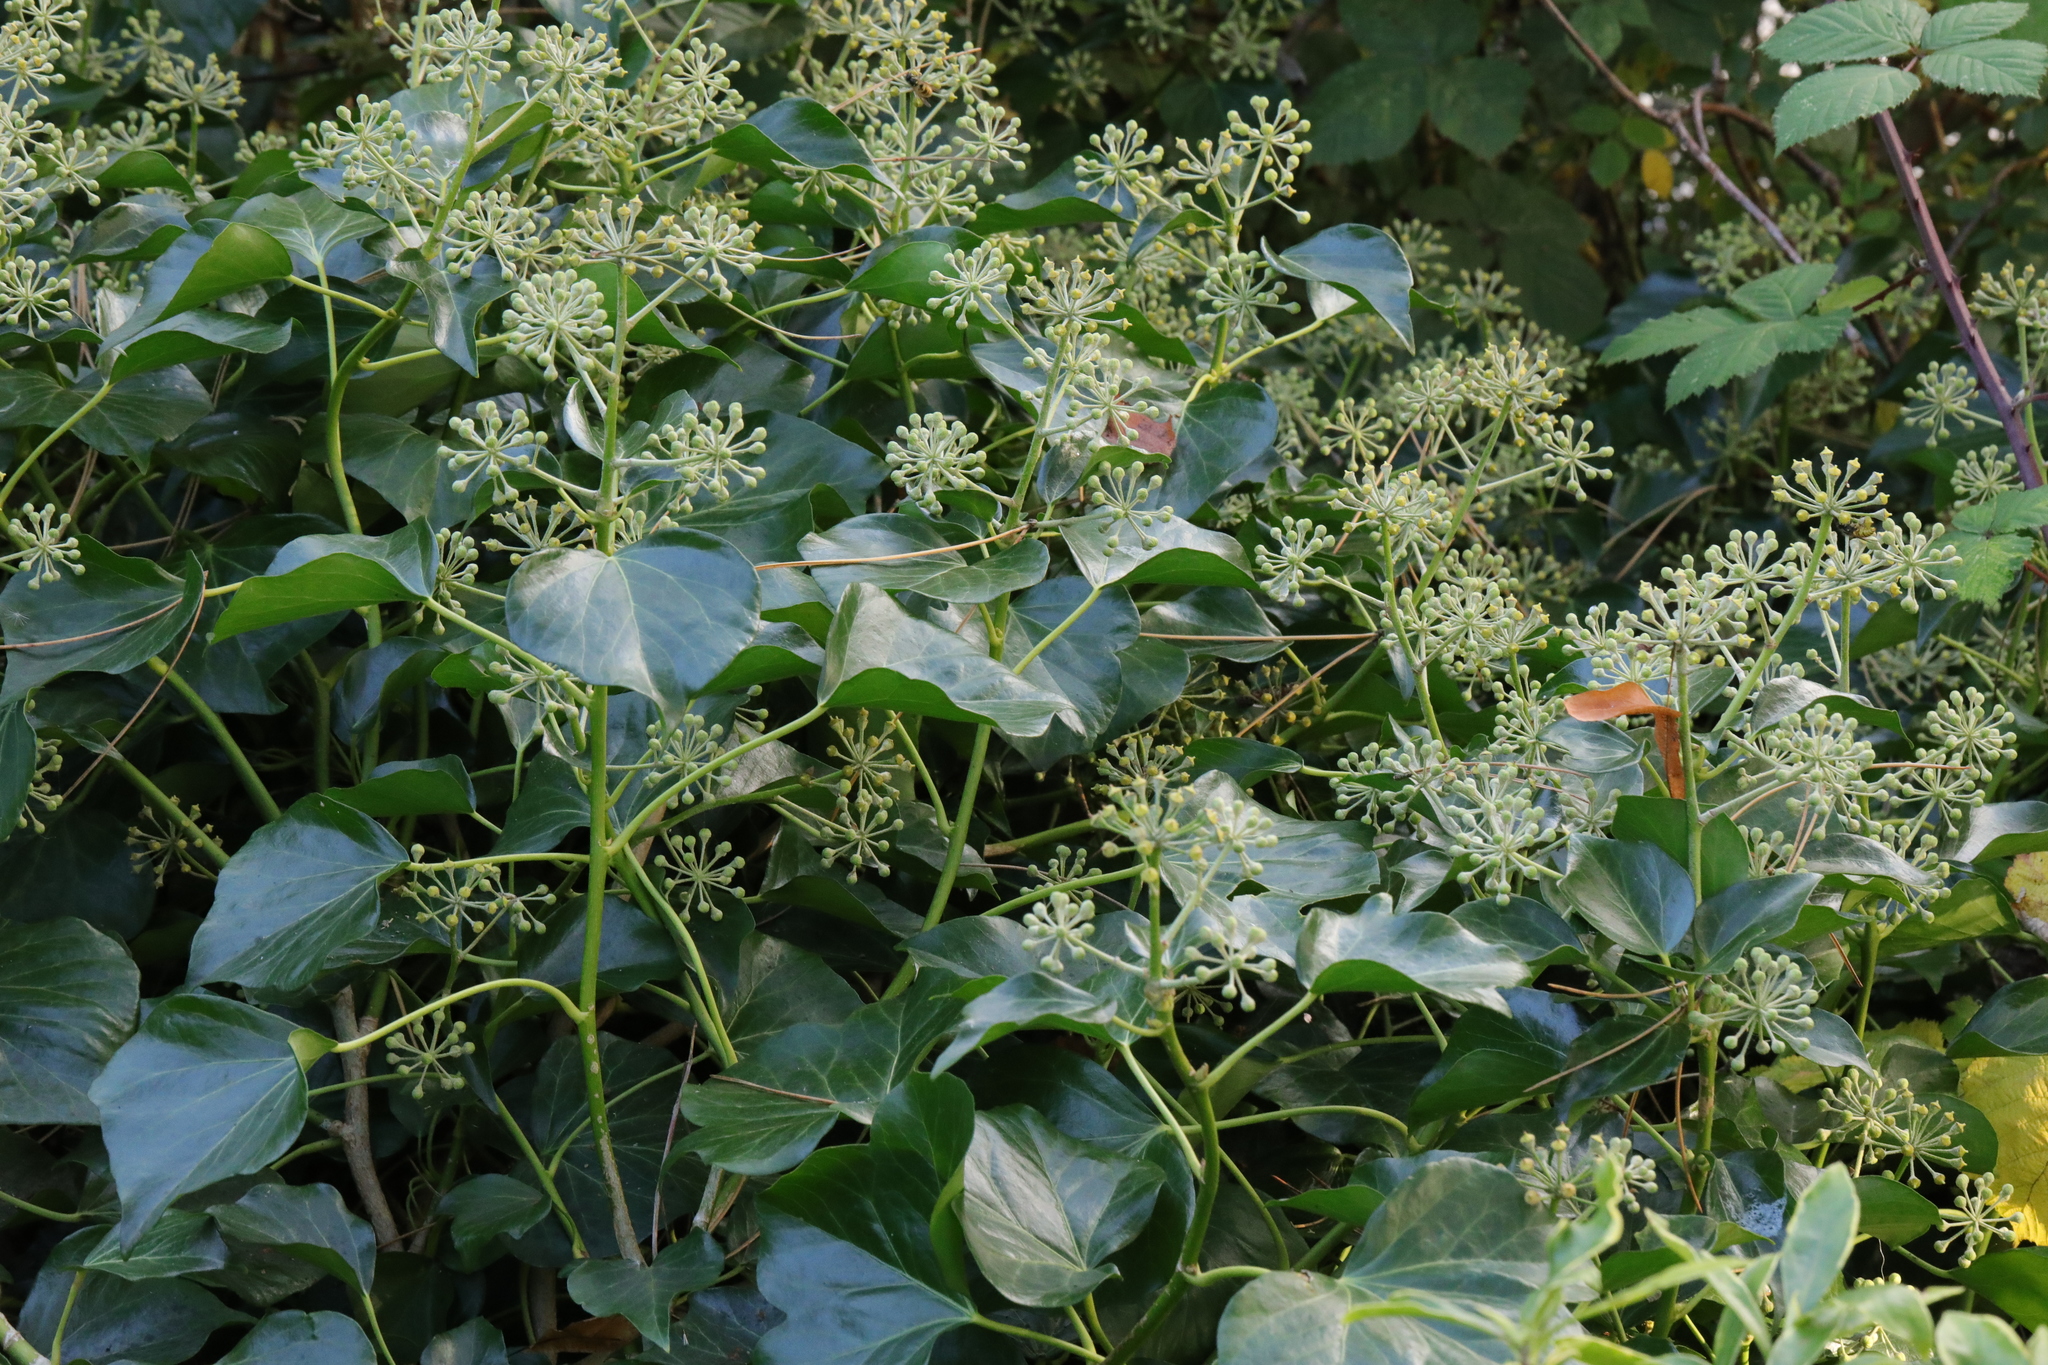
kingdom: Plantae
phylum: Tracheophyta
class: Magnoliopsida
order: Apiales
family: Araliaceae
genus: Hedera
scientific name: Hedera helix
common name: Ivy
